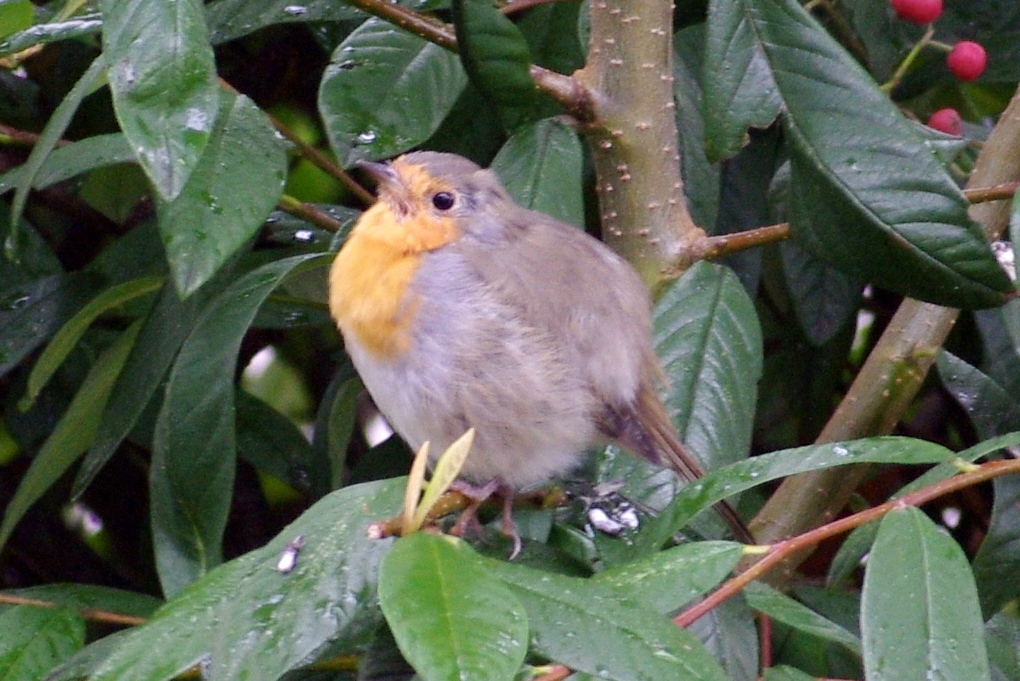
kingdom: Animalia
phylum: Chordata
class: Aves
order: Passeriformes
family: Muscicapidae
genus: Erithacus
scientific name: Erithacus rubecula
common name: European robin
